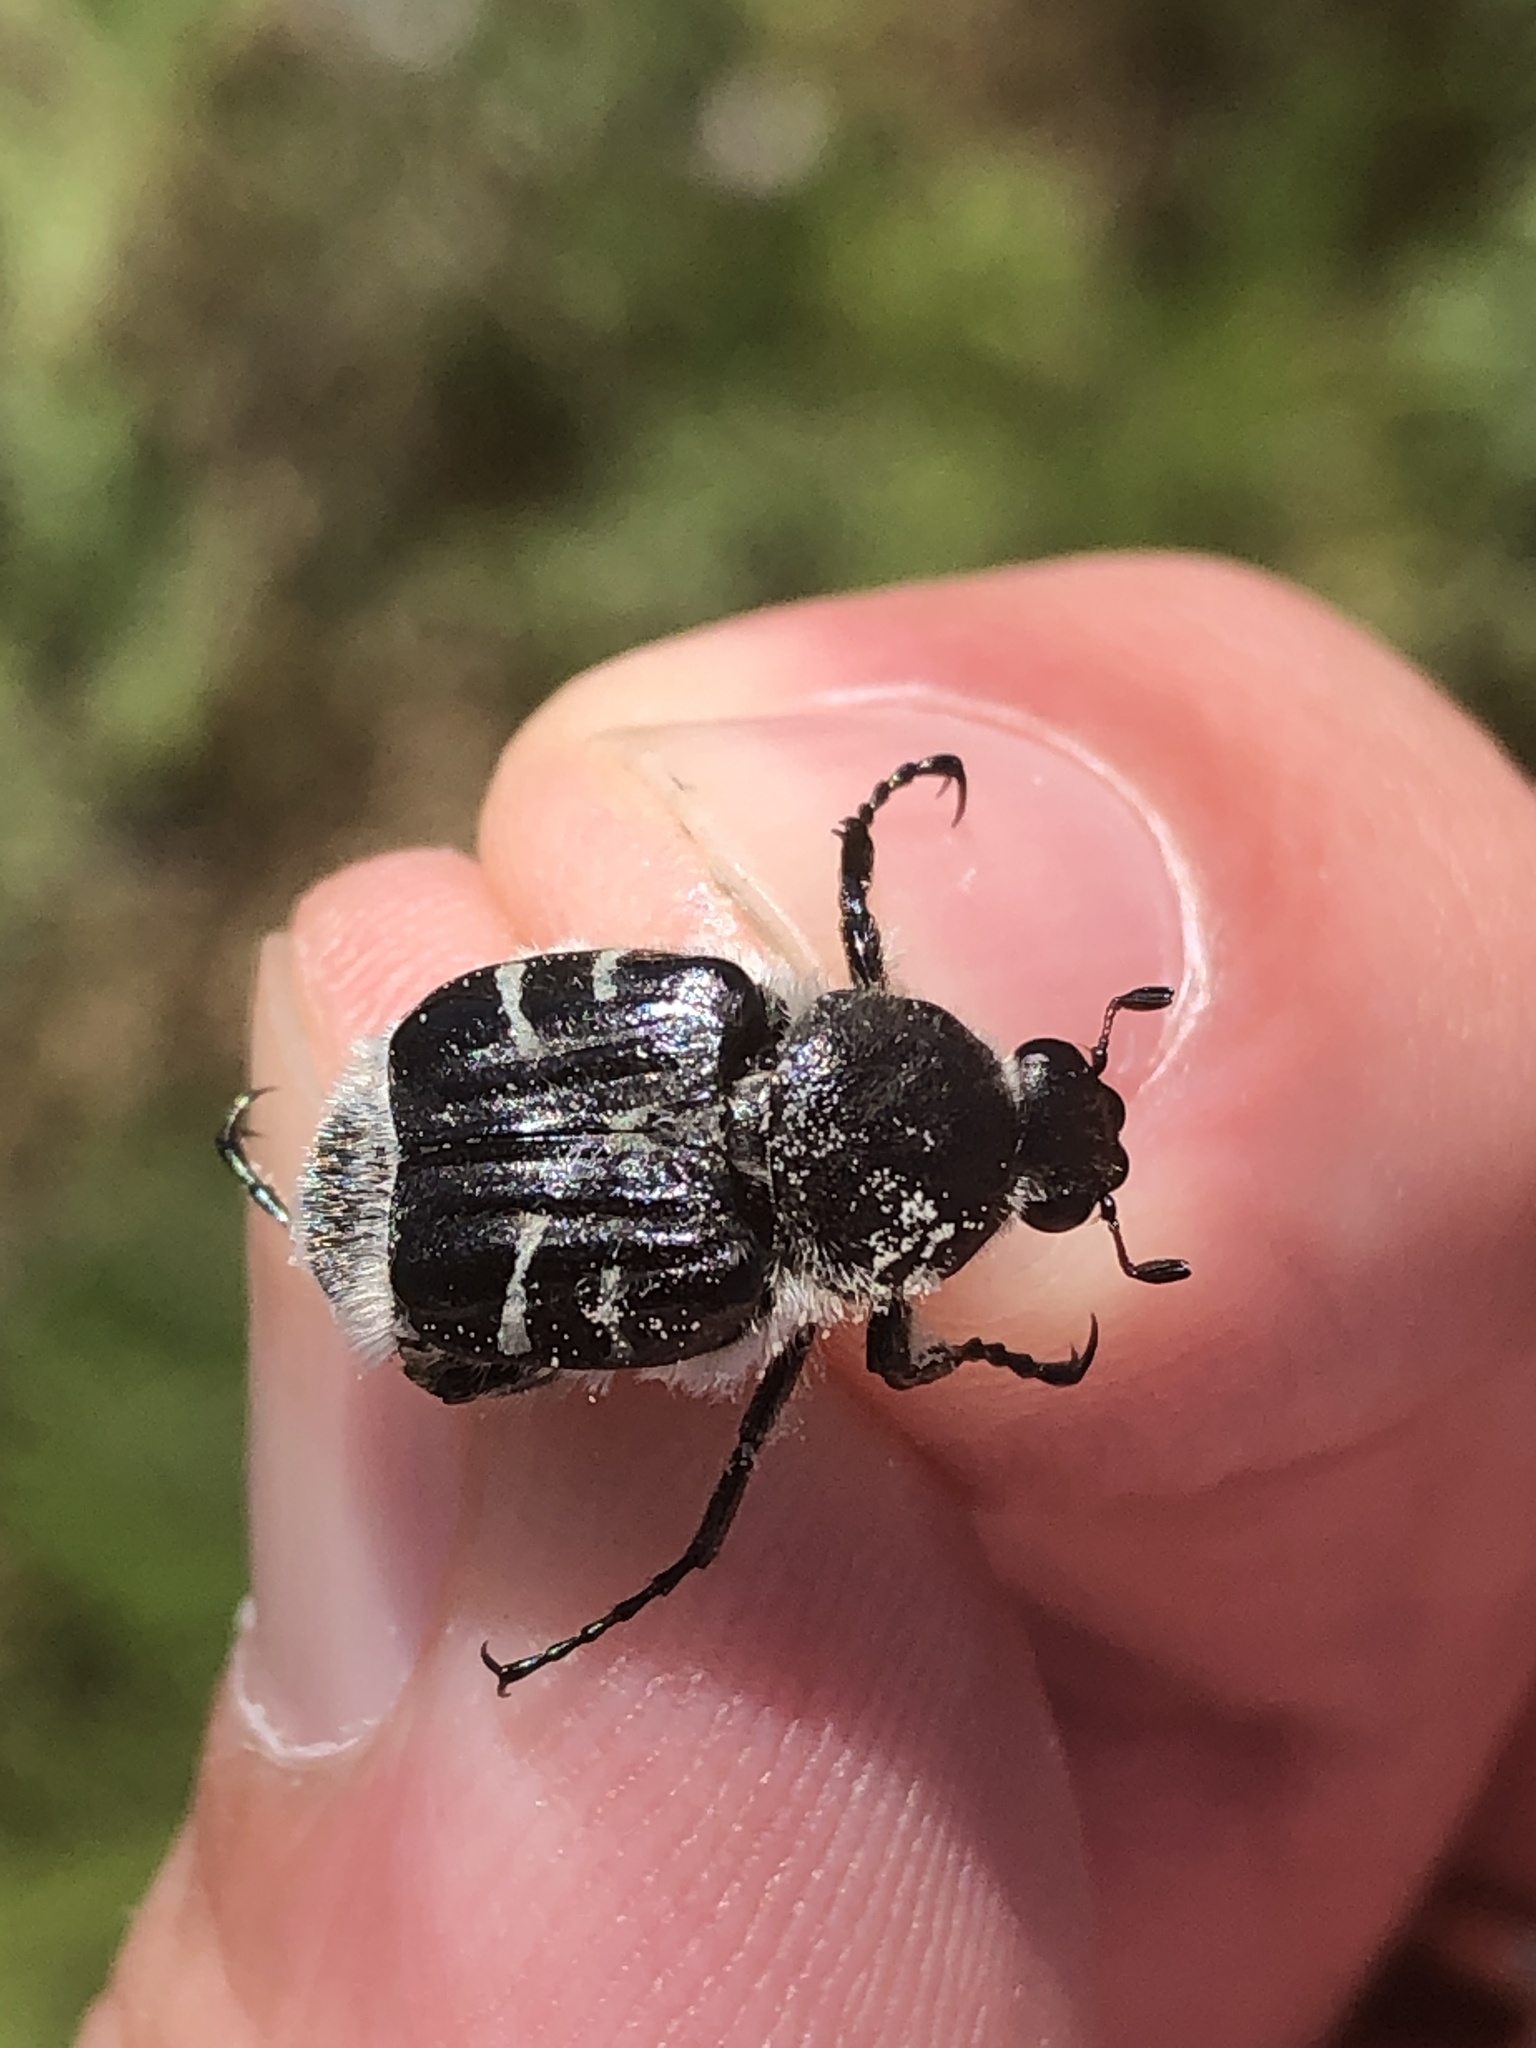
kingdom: Animalia
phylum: Arthropoda
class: Insecta
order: Coleoptera
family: Scarabaeidae
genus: Trichiotinus
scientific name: Trichiotinus texanus
